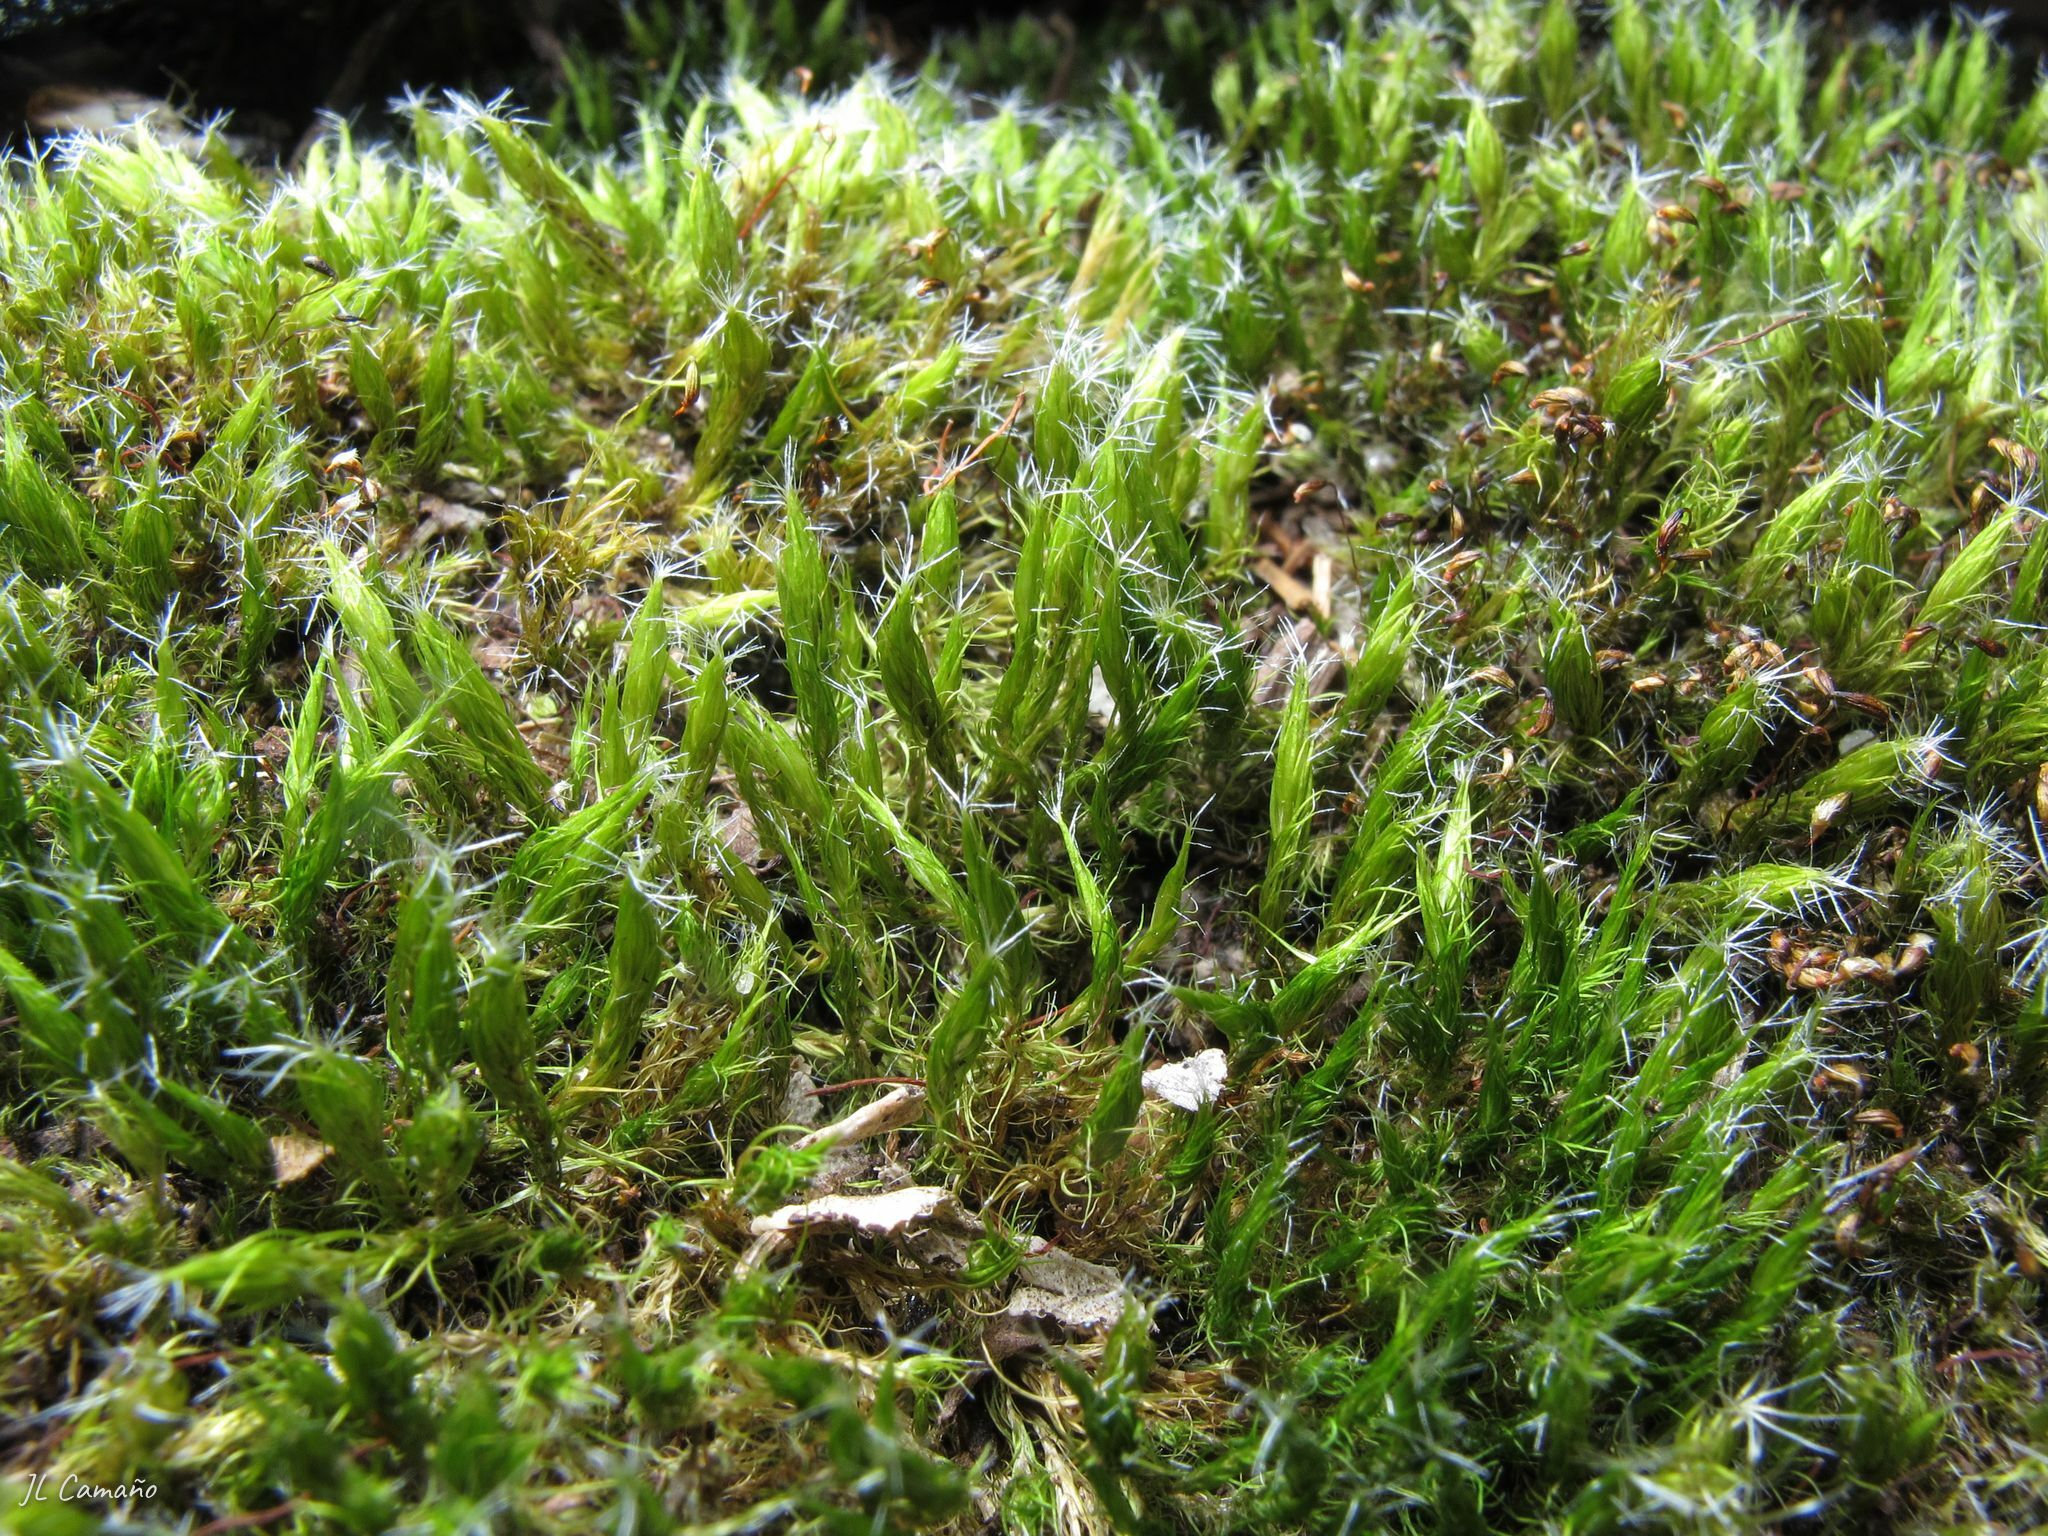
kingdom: Plantae
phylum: Bryophyta
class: Bryopsida
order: Dicranales
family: Leucobryaceae
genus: Campylopus
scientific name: Campylopus introflexus
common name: Heath star moss
